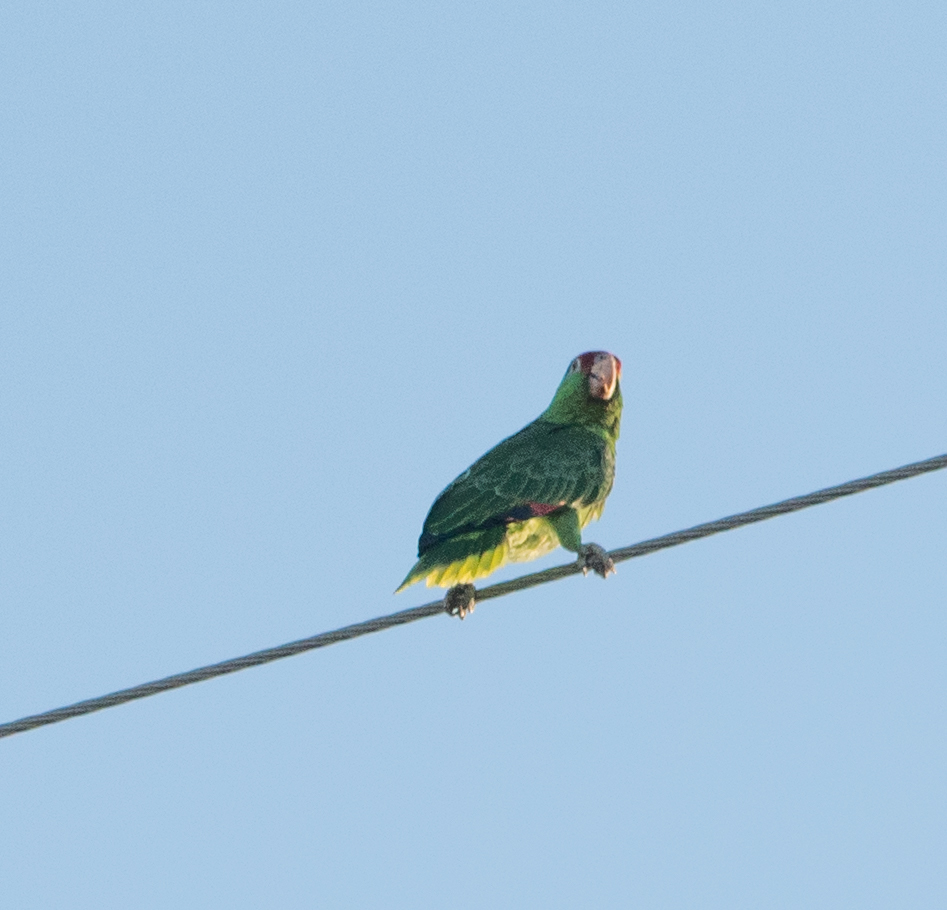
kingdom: Animalia
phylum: Chordata
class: Aves
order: Psittaciformes
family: Psittacidae
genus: Amazona
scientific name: Amazona viridigenalis
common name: Red-crowned amazon
